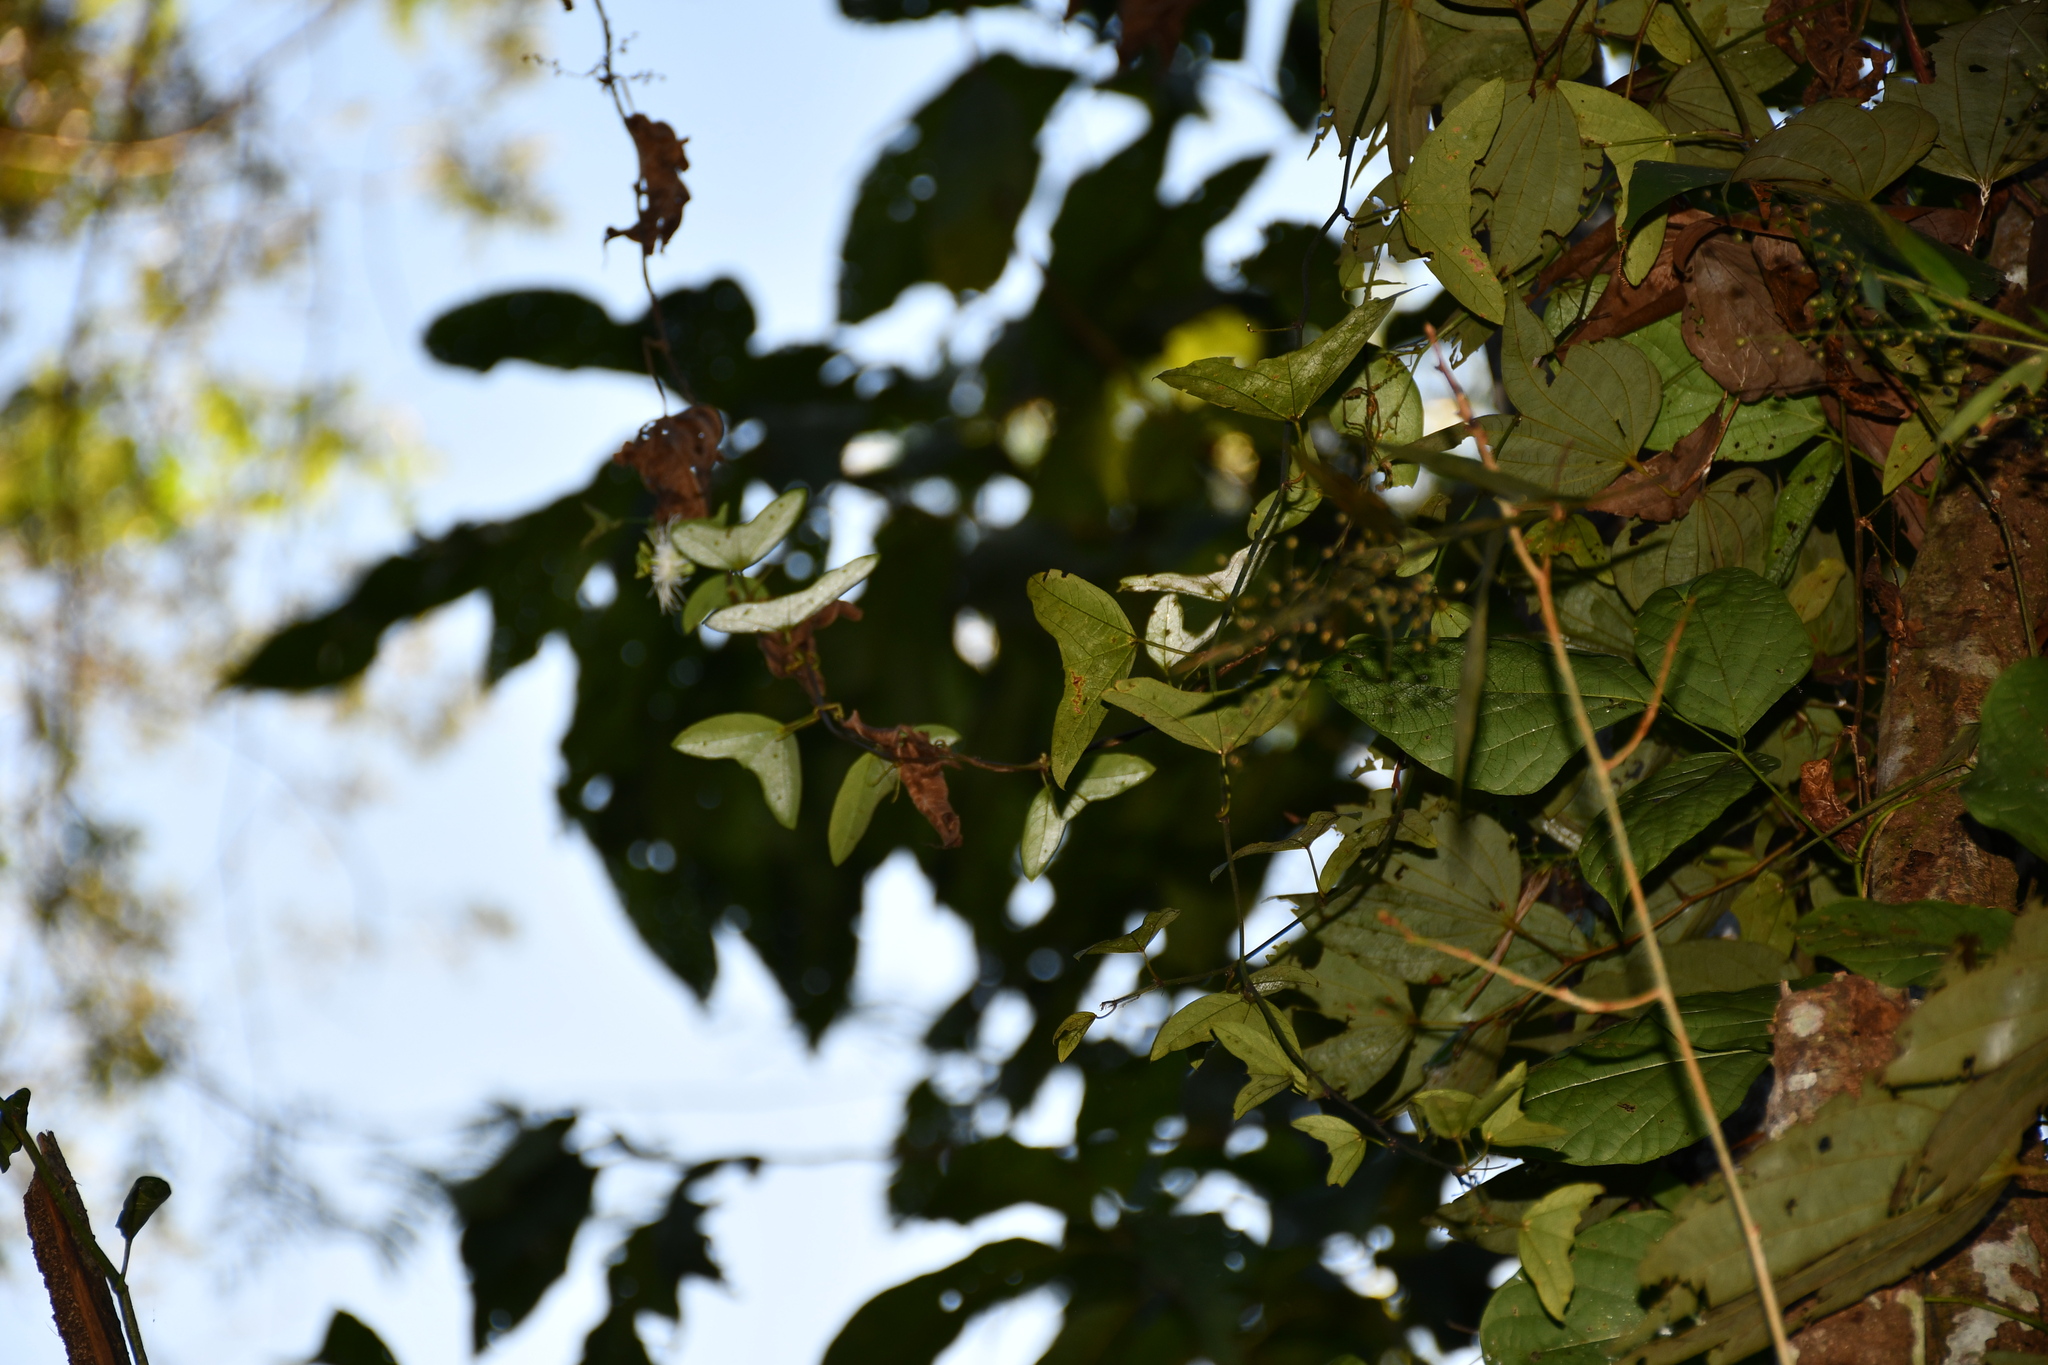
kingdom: Plantae
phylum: Tracheophyta
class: Magnoliopsida
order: Malpighiales
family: Passifloraceae
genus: Passiflora
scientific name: Passiflora misera
